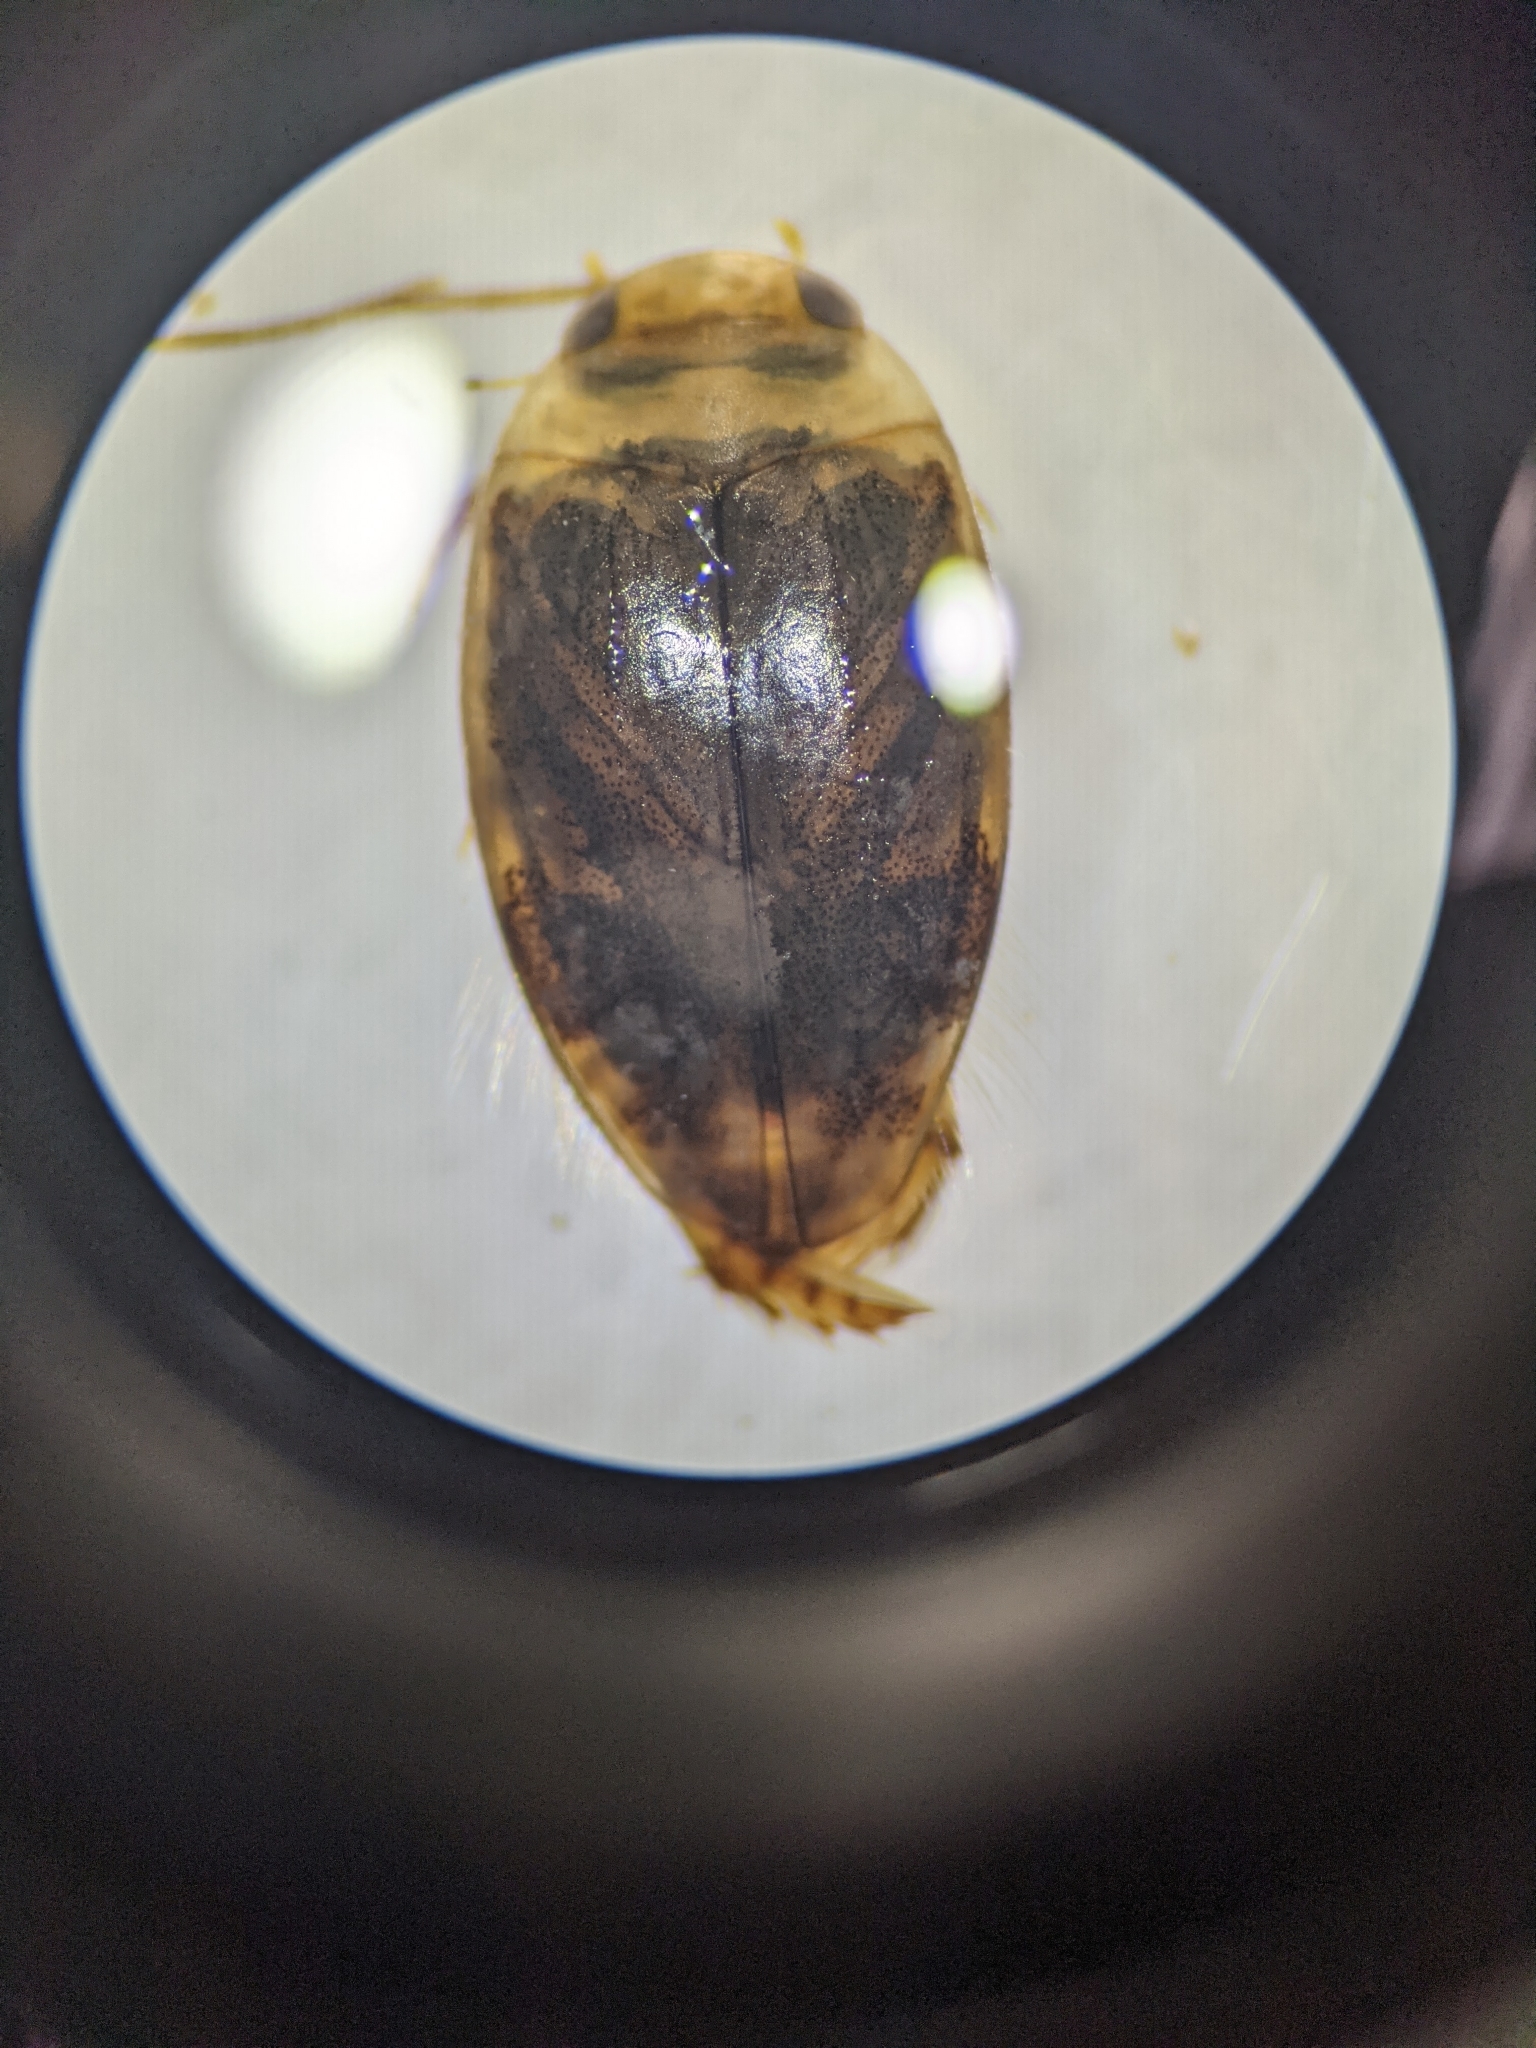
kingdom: Animalia
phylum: Arthropoda
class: Insecta
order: Coleoptera
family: Dytiscidae
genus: Laccophilus
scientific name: Laccophilus proximus
